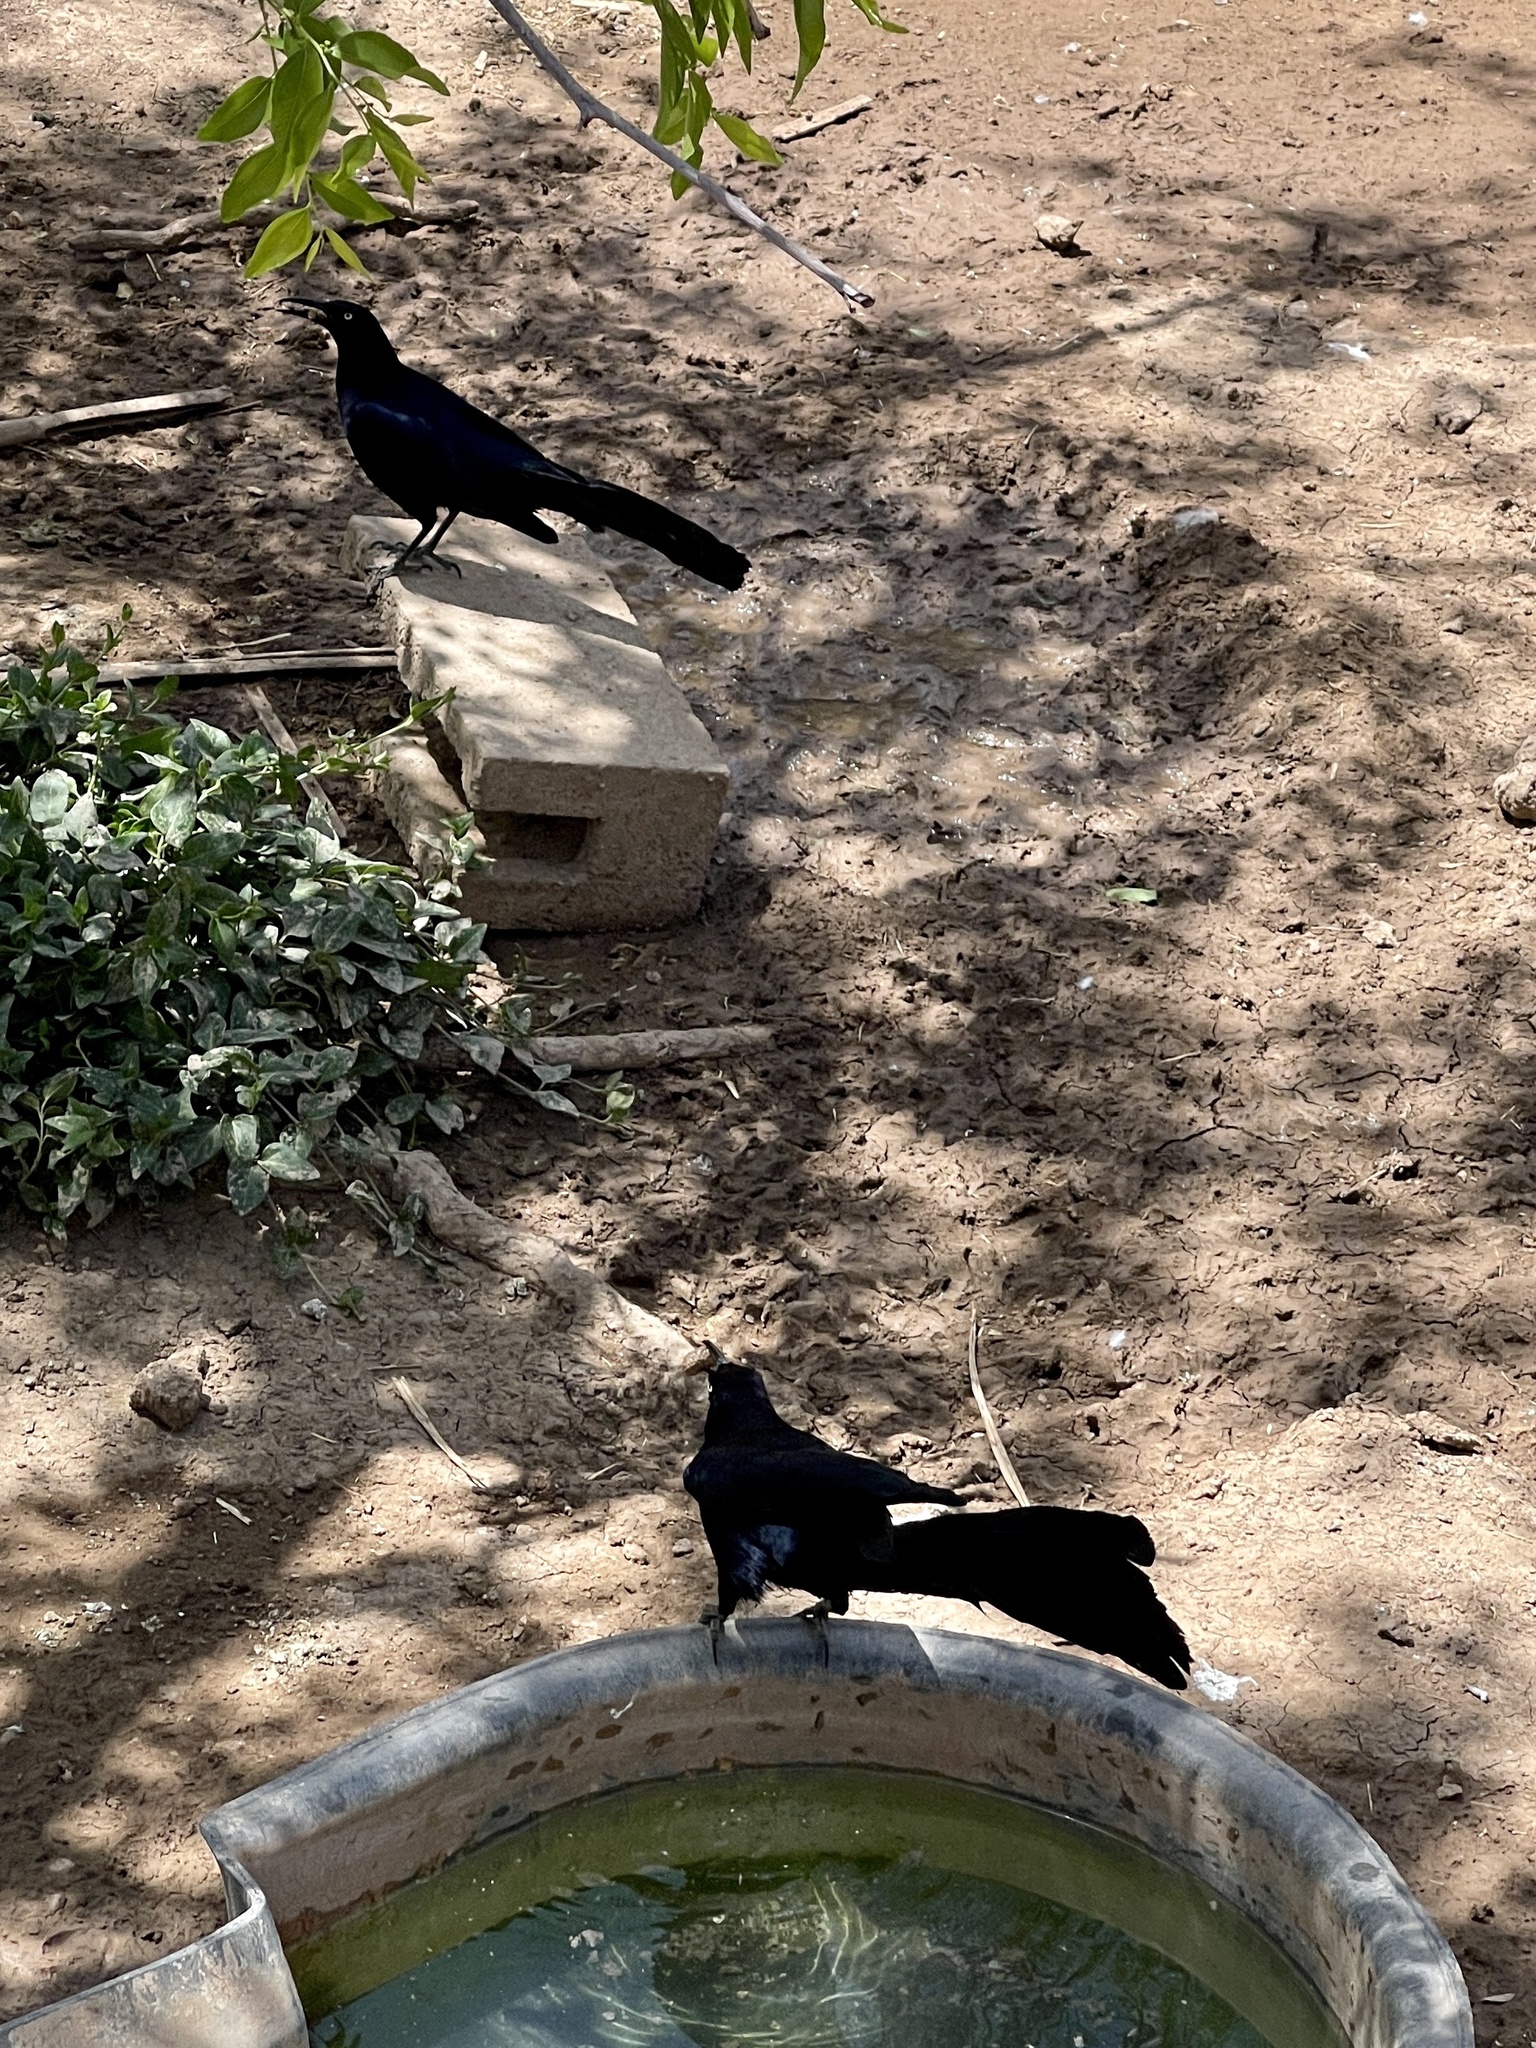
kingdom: Animalia
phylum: Chordata
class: Aves
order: Passeriformes
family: Icteridae
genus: Quiscalus
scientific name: Quiscalus mexicanus
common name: Great-tailed grackle
